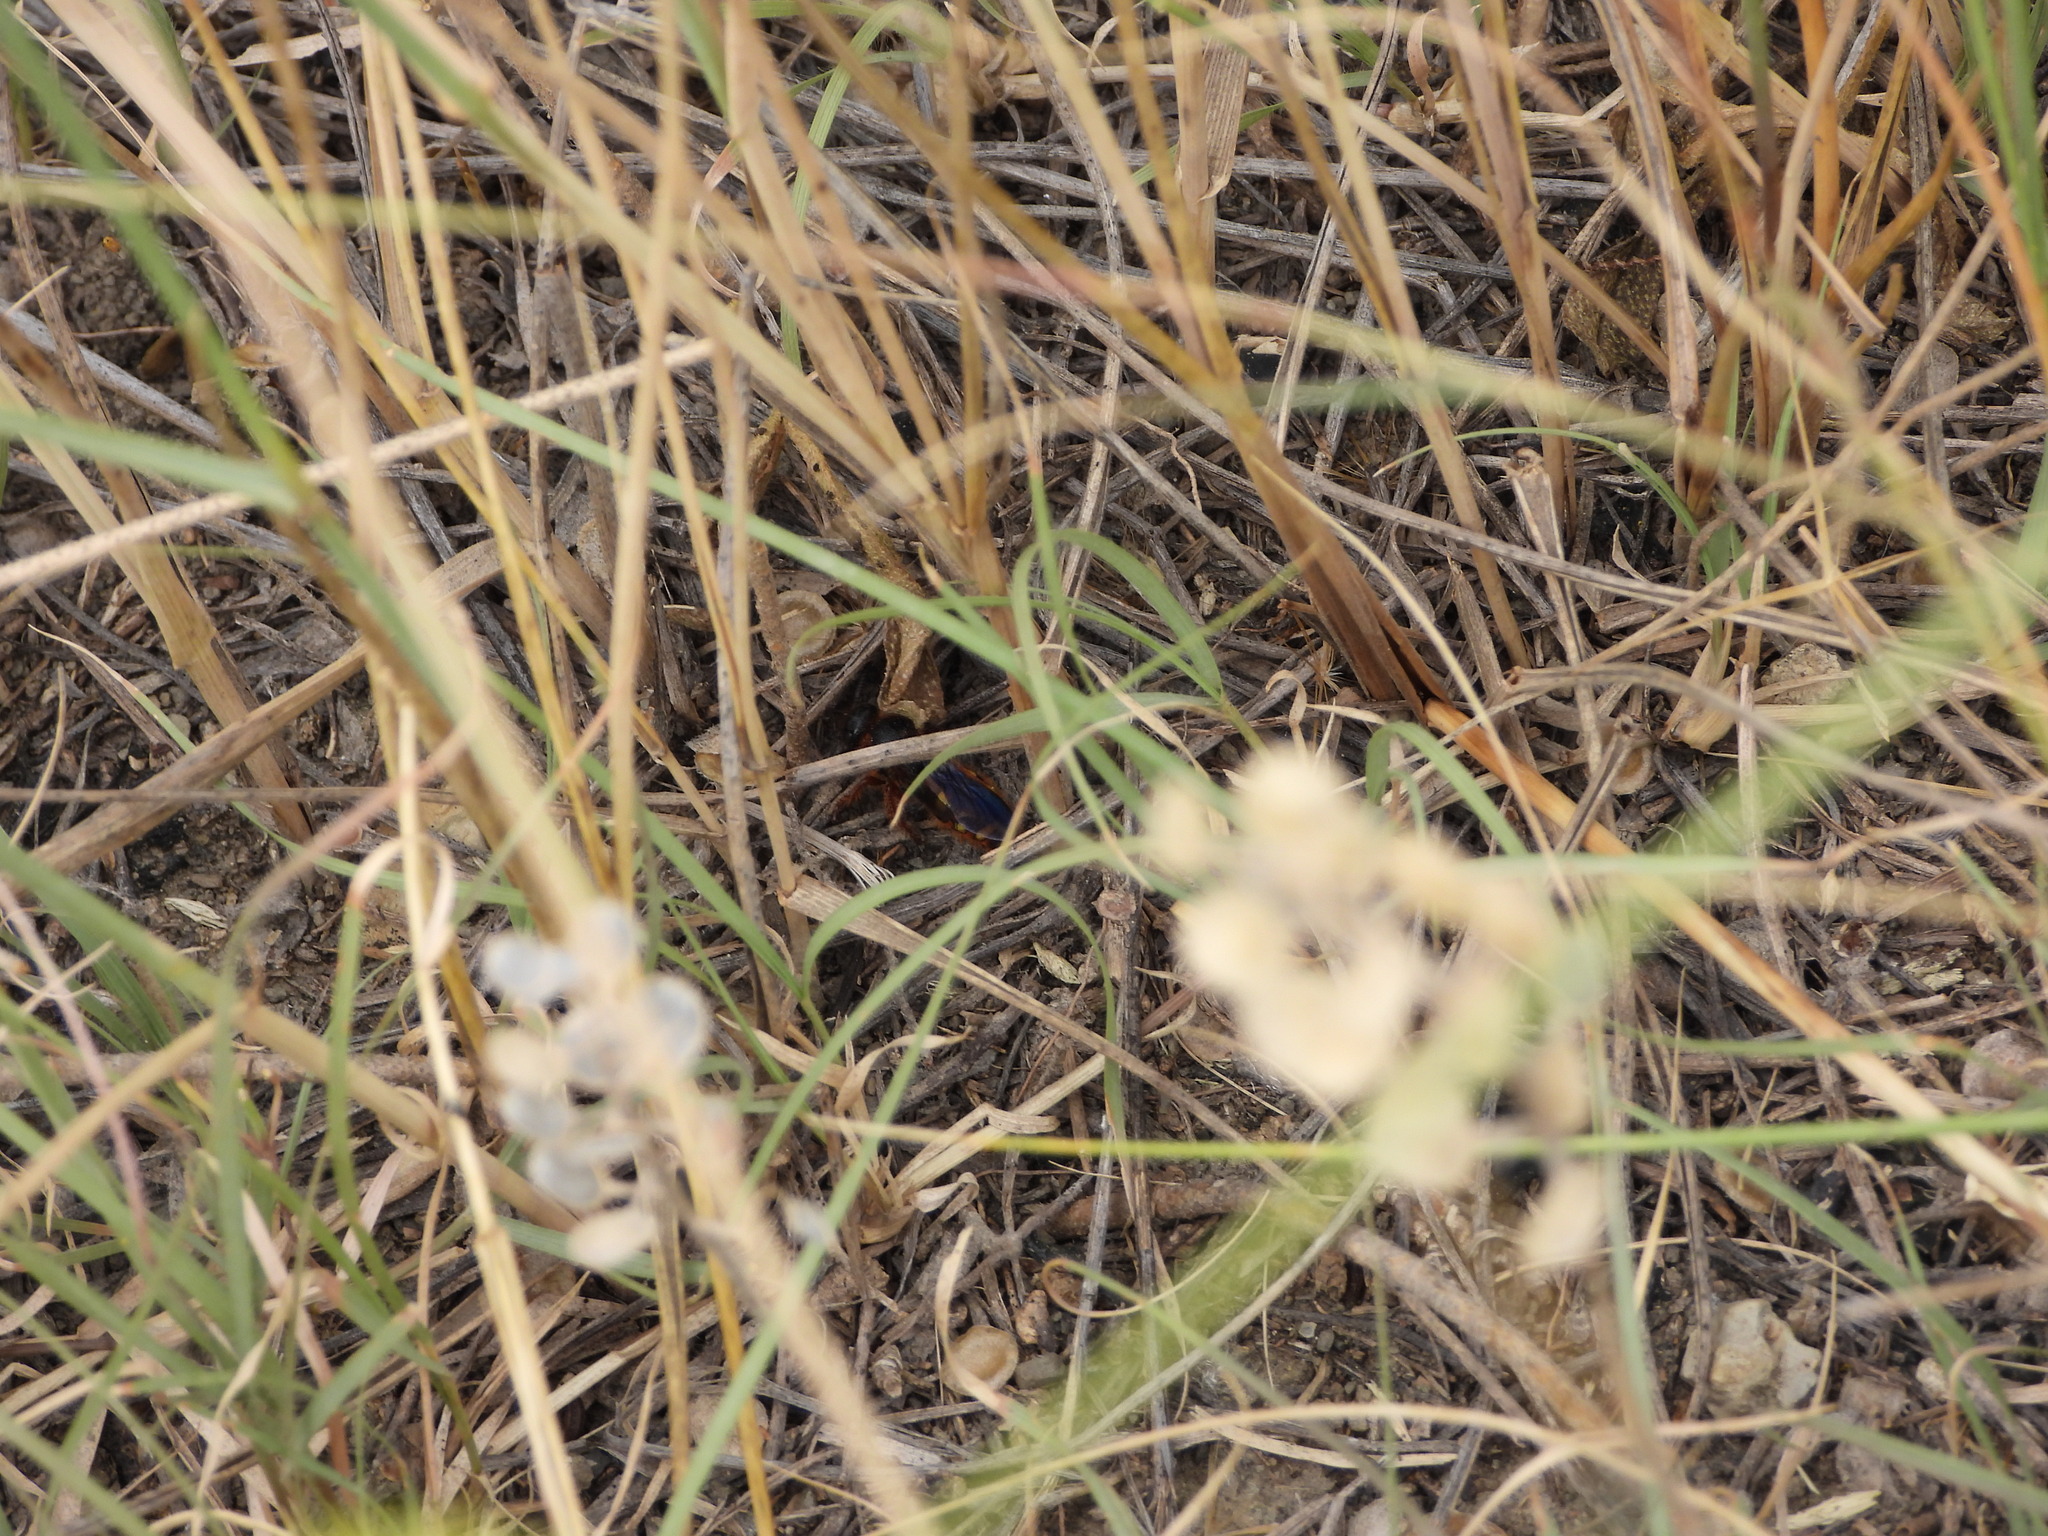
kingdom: Animalia
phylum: Arthropoda
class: Insecta
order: Hymenoptera
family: Scoliidae
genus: Scolia
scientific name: Scolia nobilitata
